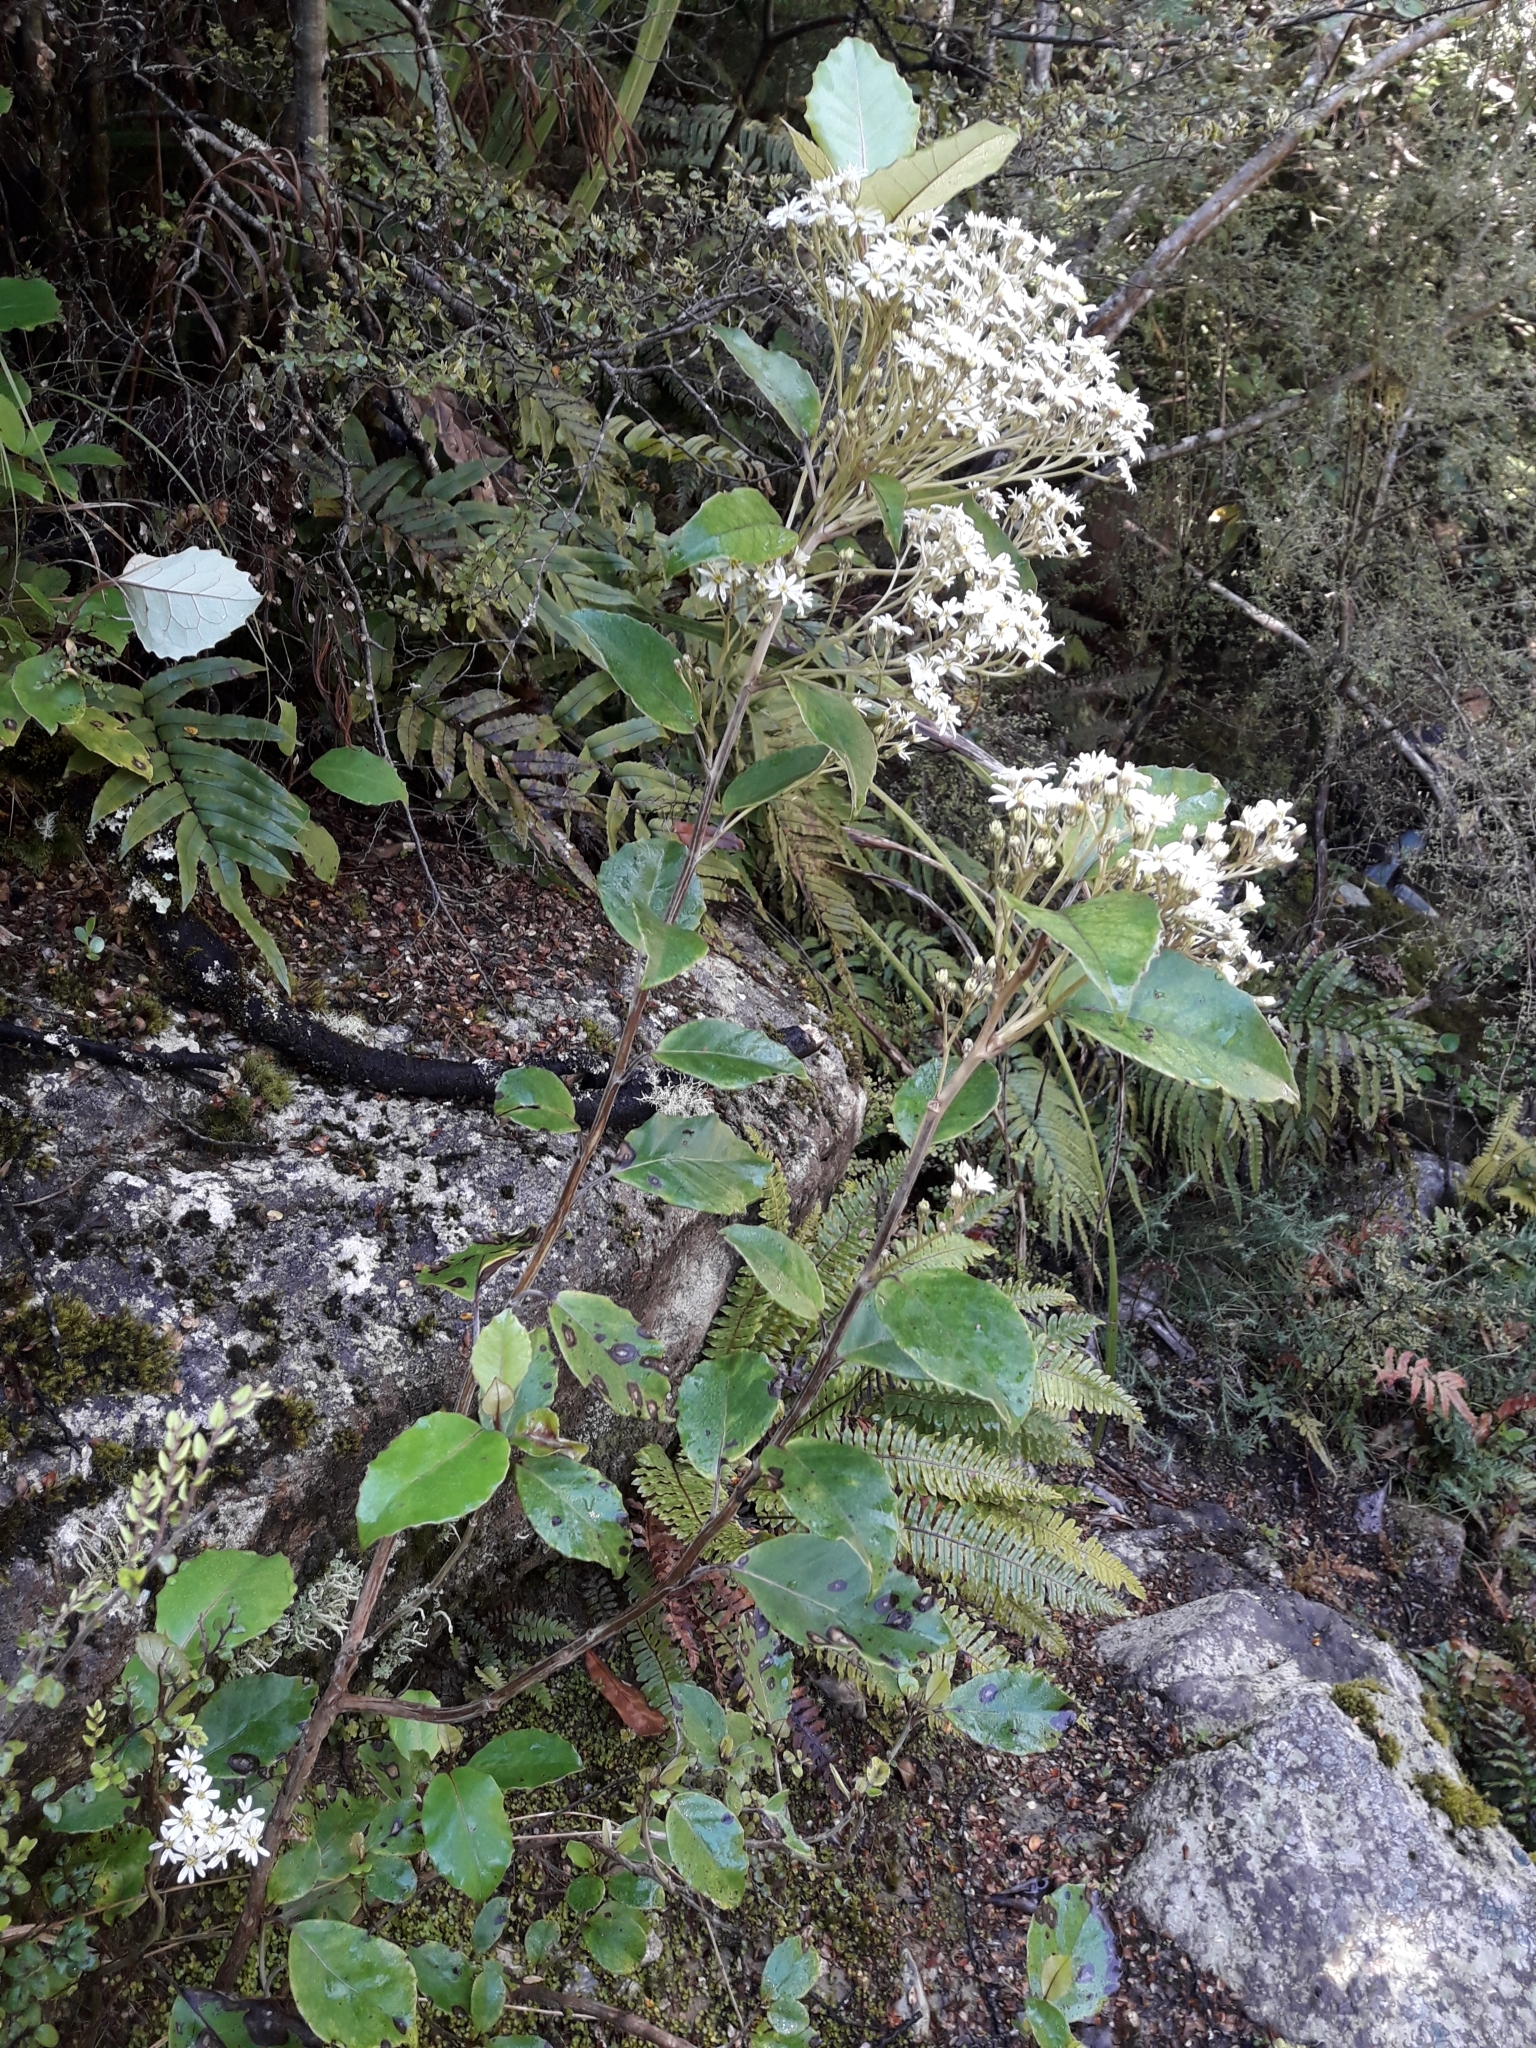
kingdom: Plantae
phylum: Tracheophyta
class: Magnoliopsida
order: Asterales
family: Asteraceae
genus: Olearia
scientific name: Olearia arborescens
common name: Glossy tree daisy
